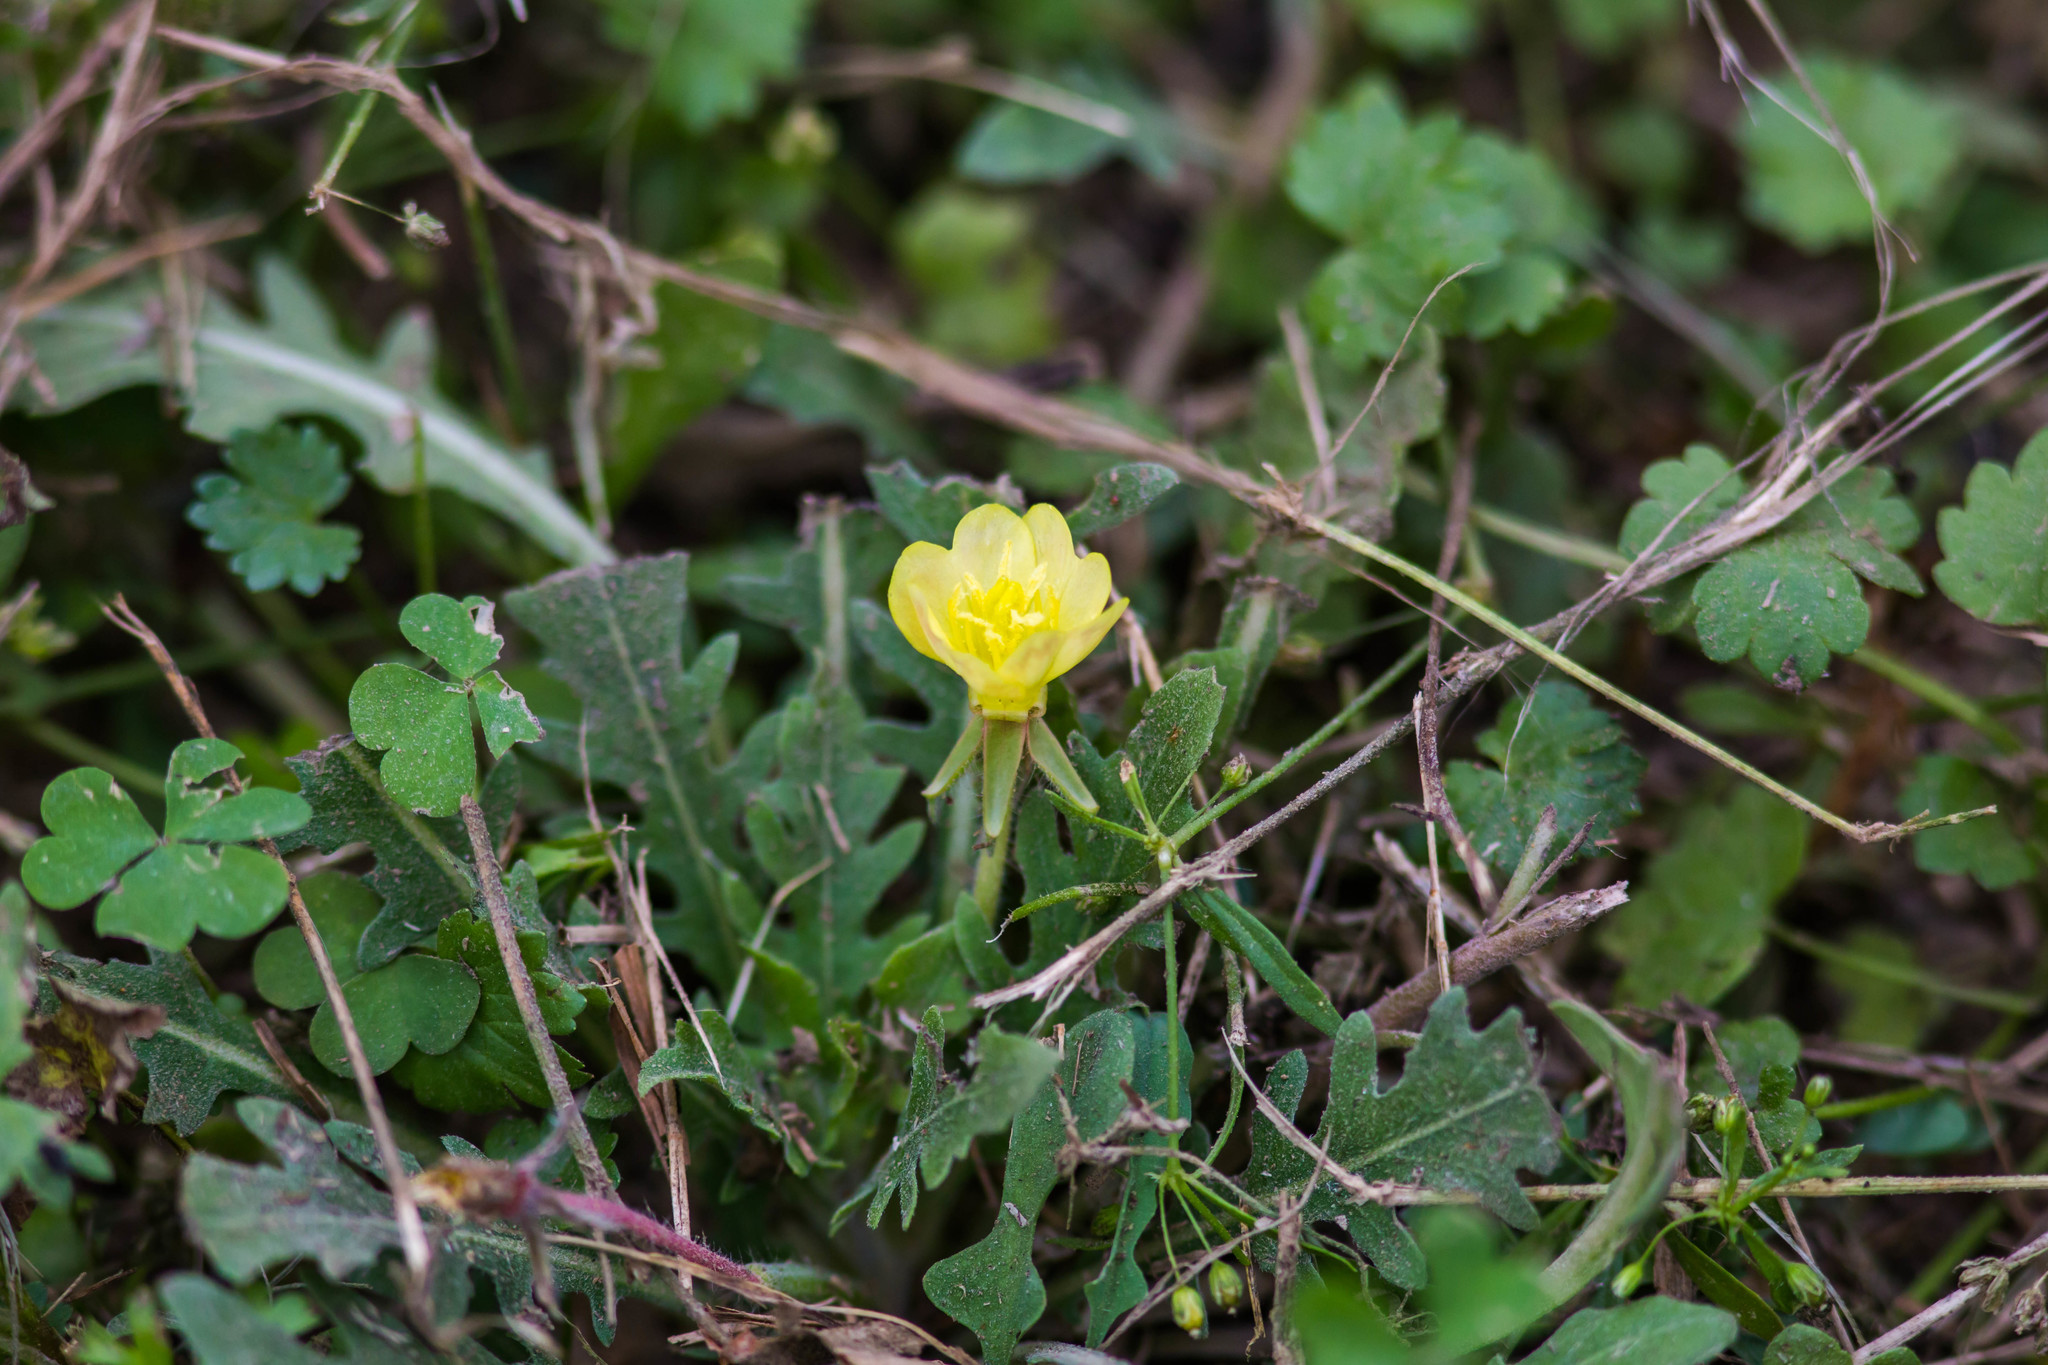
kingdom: Plantae
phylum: Tracheophyta
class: Magnoliopsida
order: Myrtales
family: Onagraceae
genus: Oenothera
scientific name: Oenothera laciniata
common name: Cut-leaved evening-primrose
